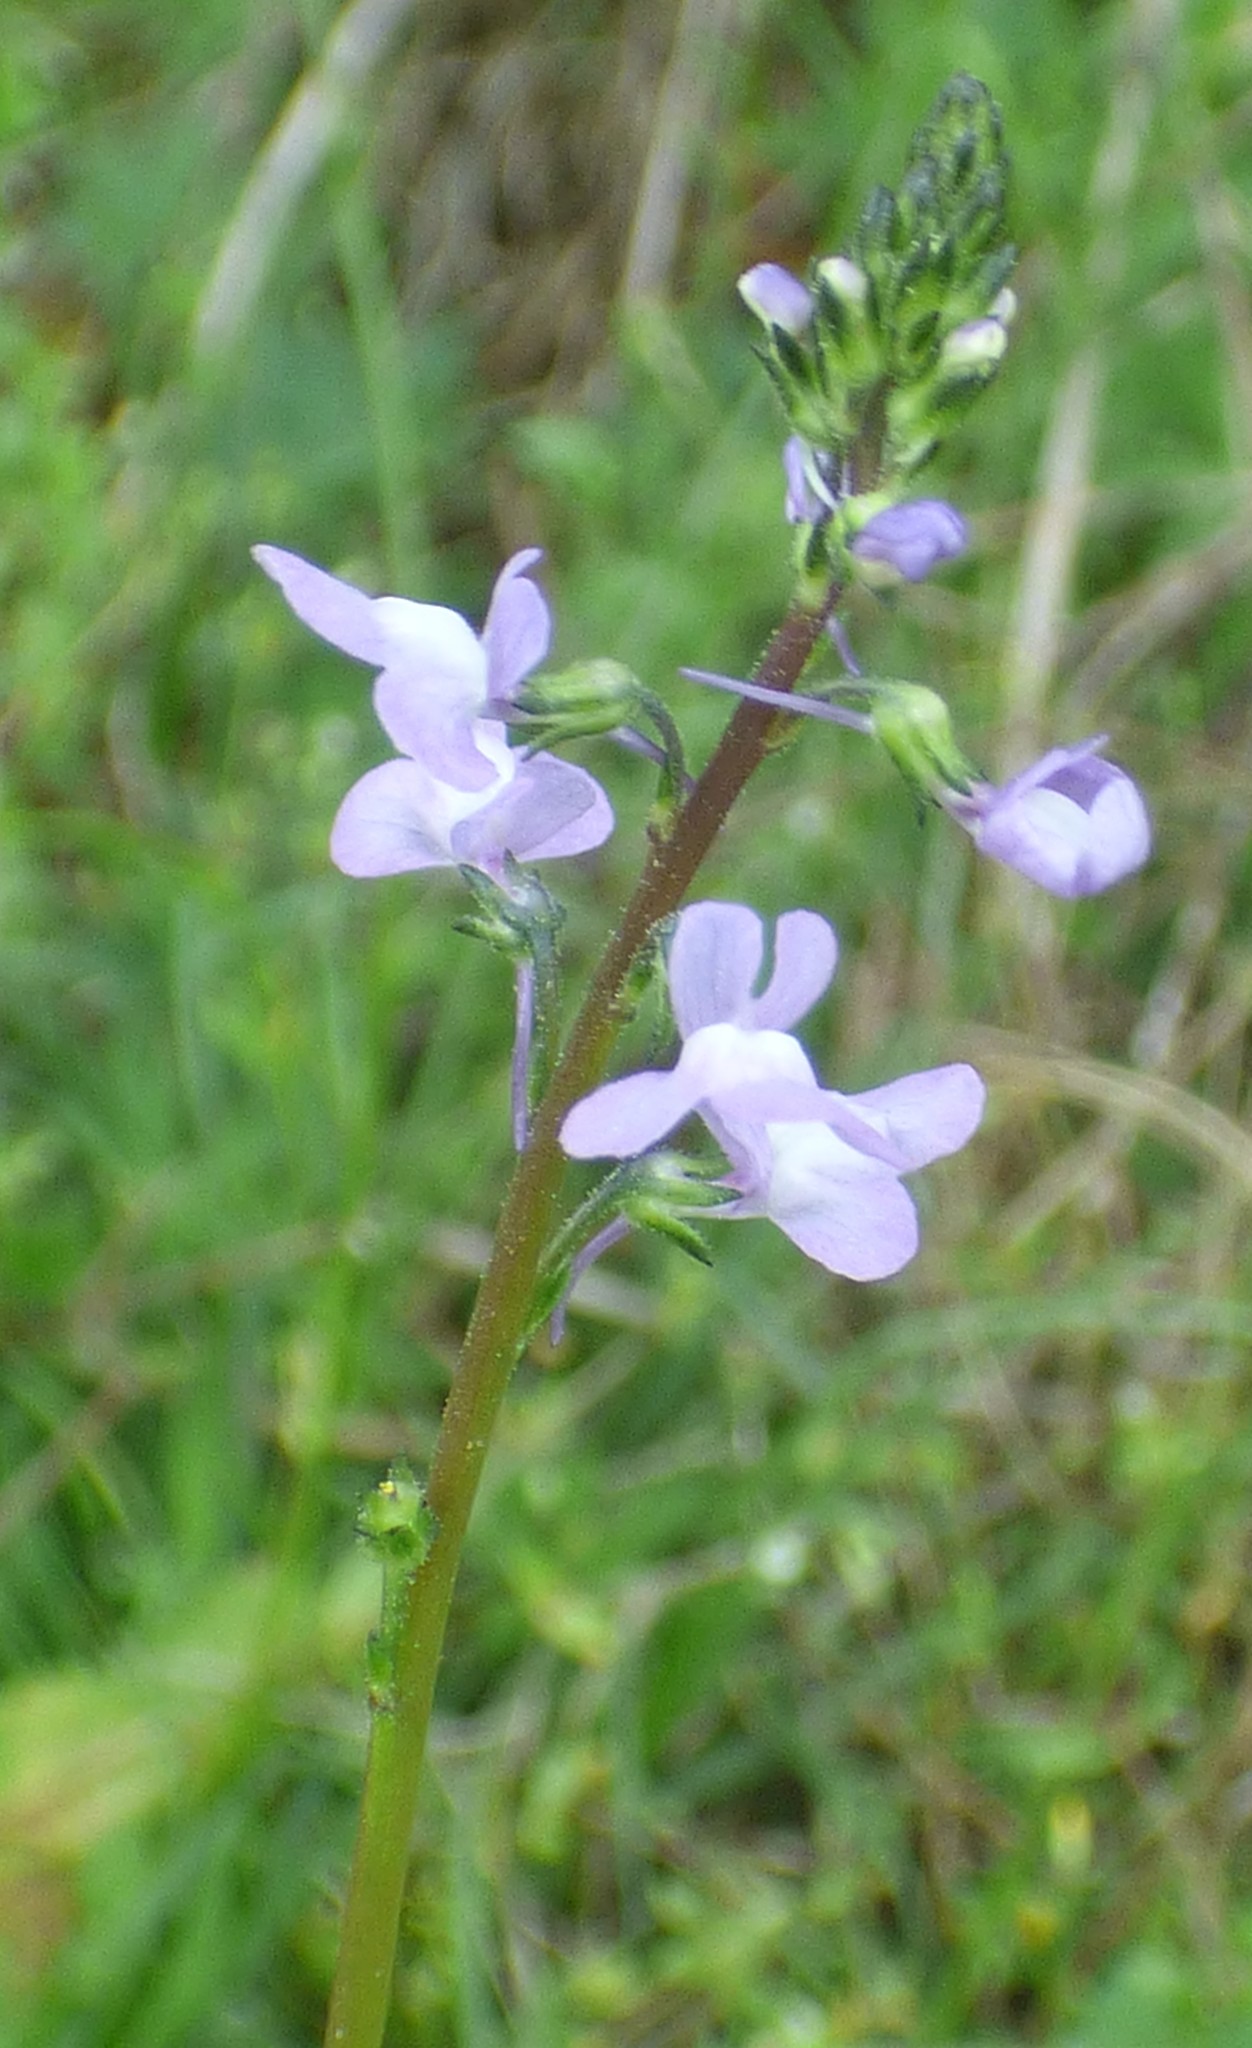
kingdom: Plantae
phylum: Tracheophyta
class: Magnoliopsida
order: Lamiales
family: Plantaginaceae
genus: Nuttallanthus
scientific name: Nuttallanthus canadensis
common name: Blue toadflax
